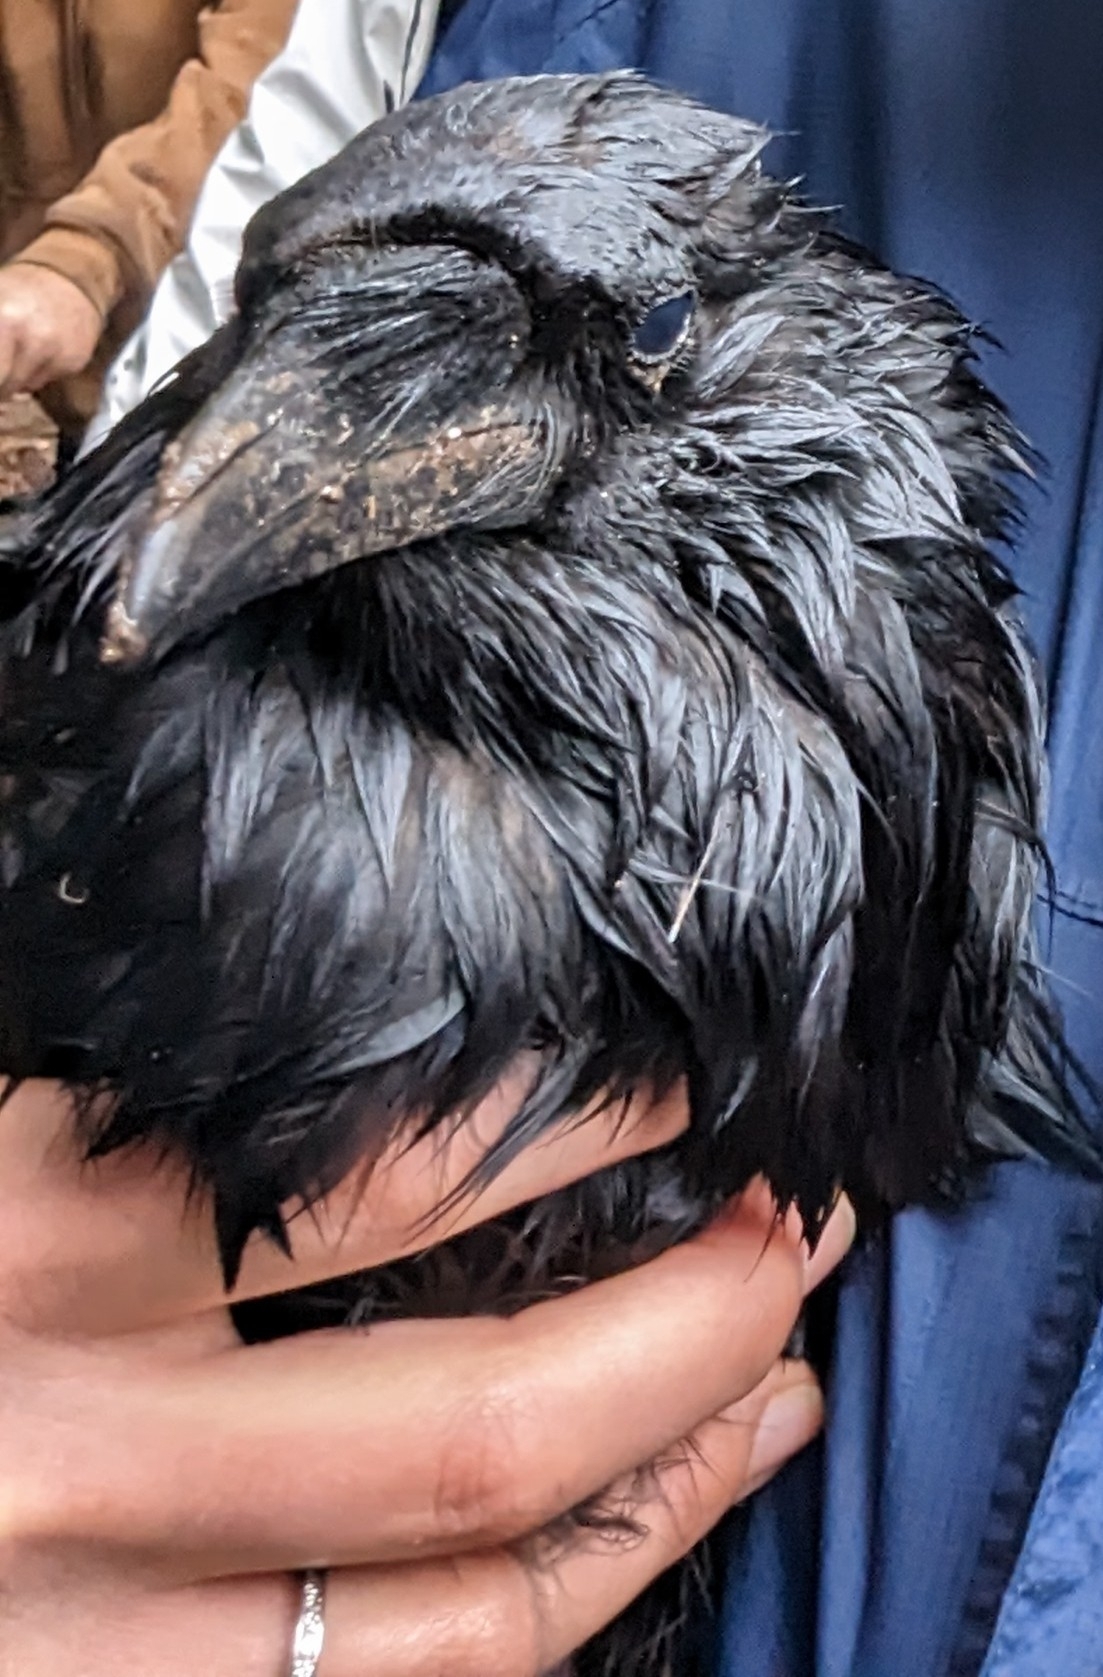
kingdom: Animalia
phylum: Chordata
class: Aves
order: Passeriformes
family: Corvidae
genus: Corvus
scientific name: Corvus corax
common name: Common raven
